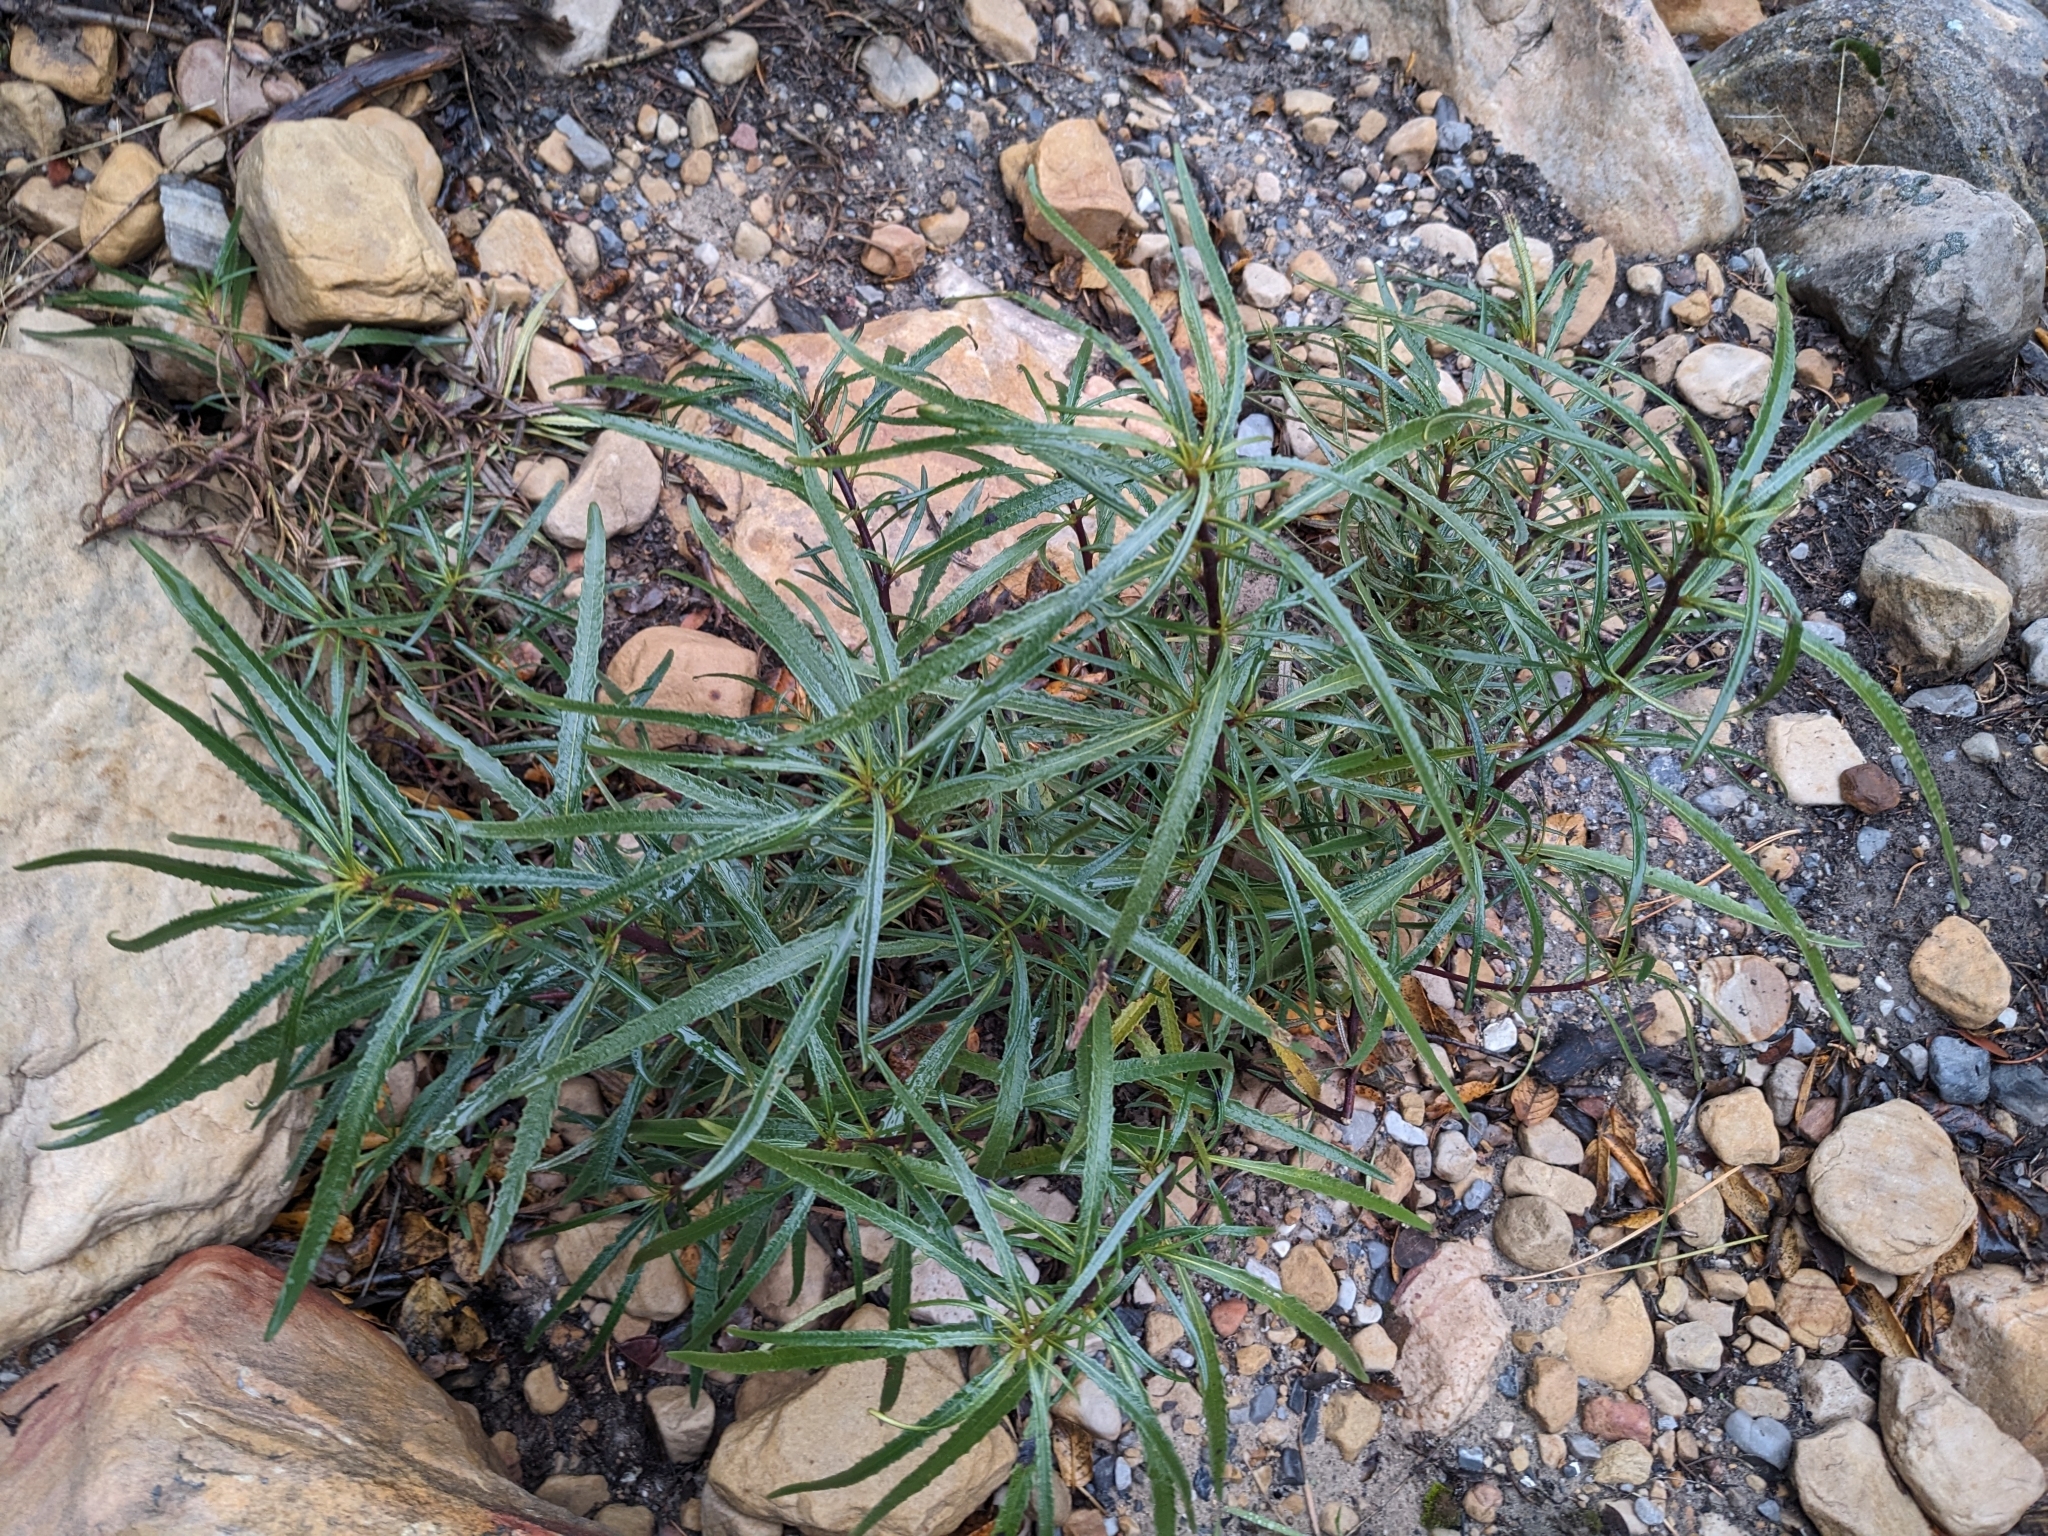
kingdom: Plantae
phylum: Tracheophyta
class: Magnoliopsida
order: Boraginales
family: Namaceae
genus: Eriodictyon
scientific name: Eriodictyon angustifolium
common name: Narrow-leaf yerba santa
